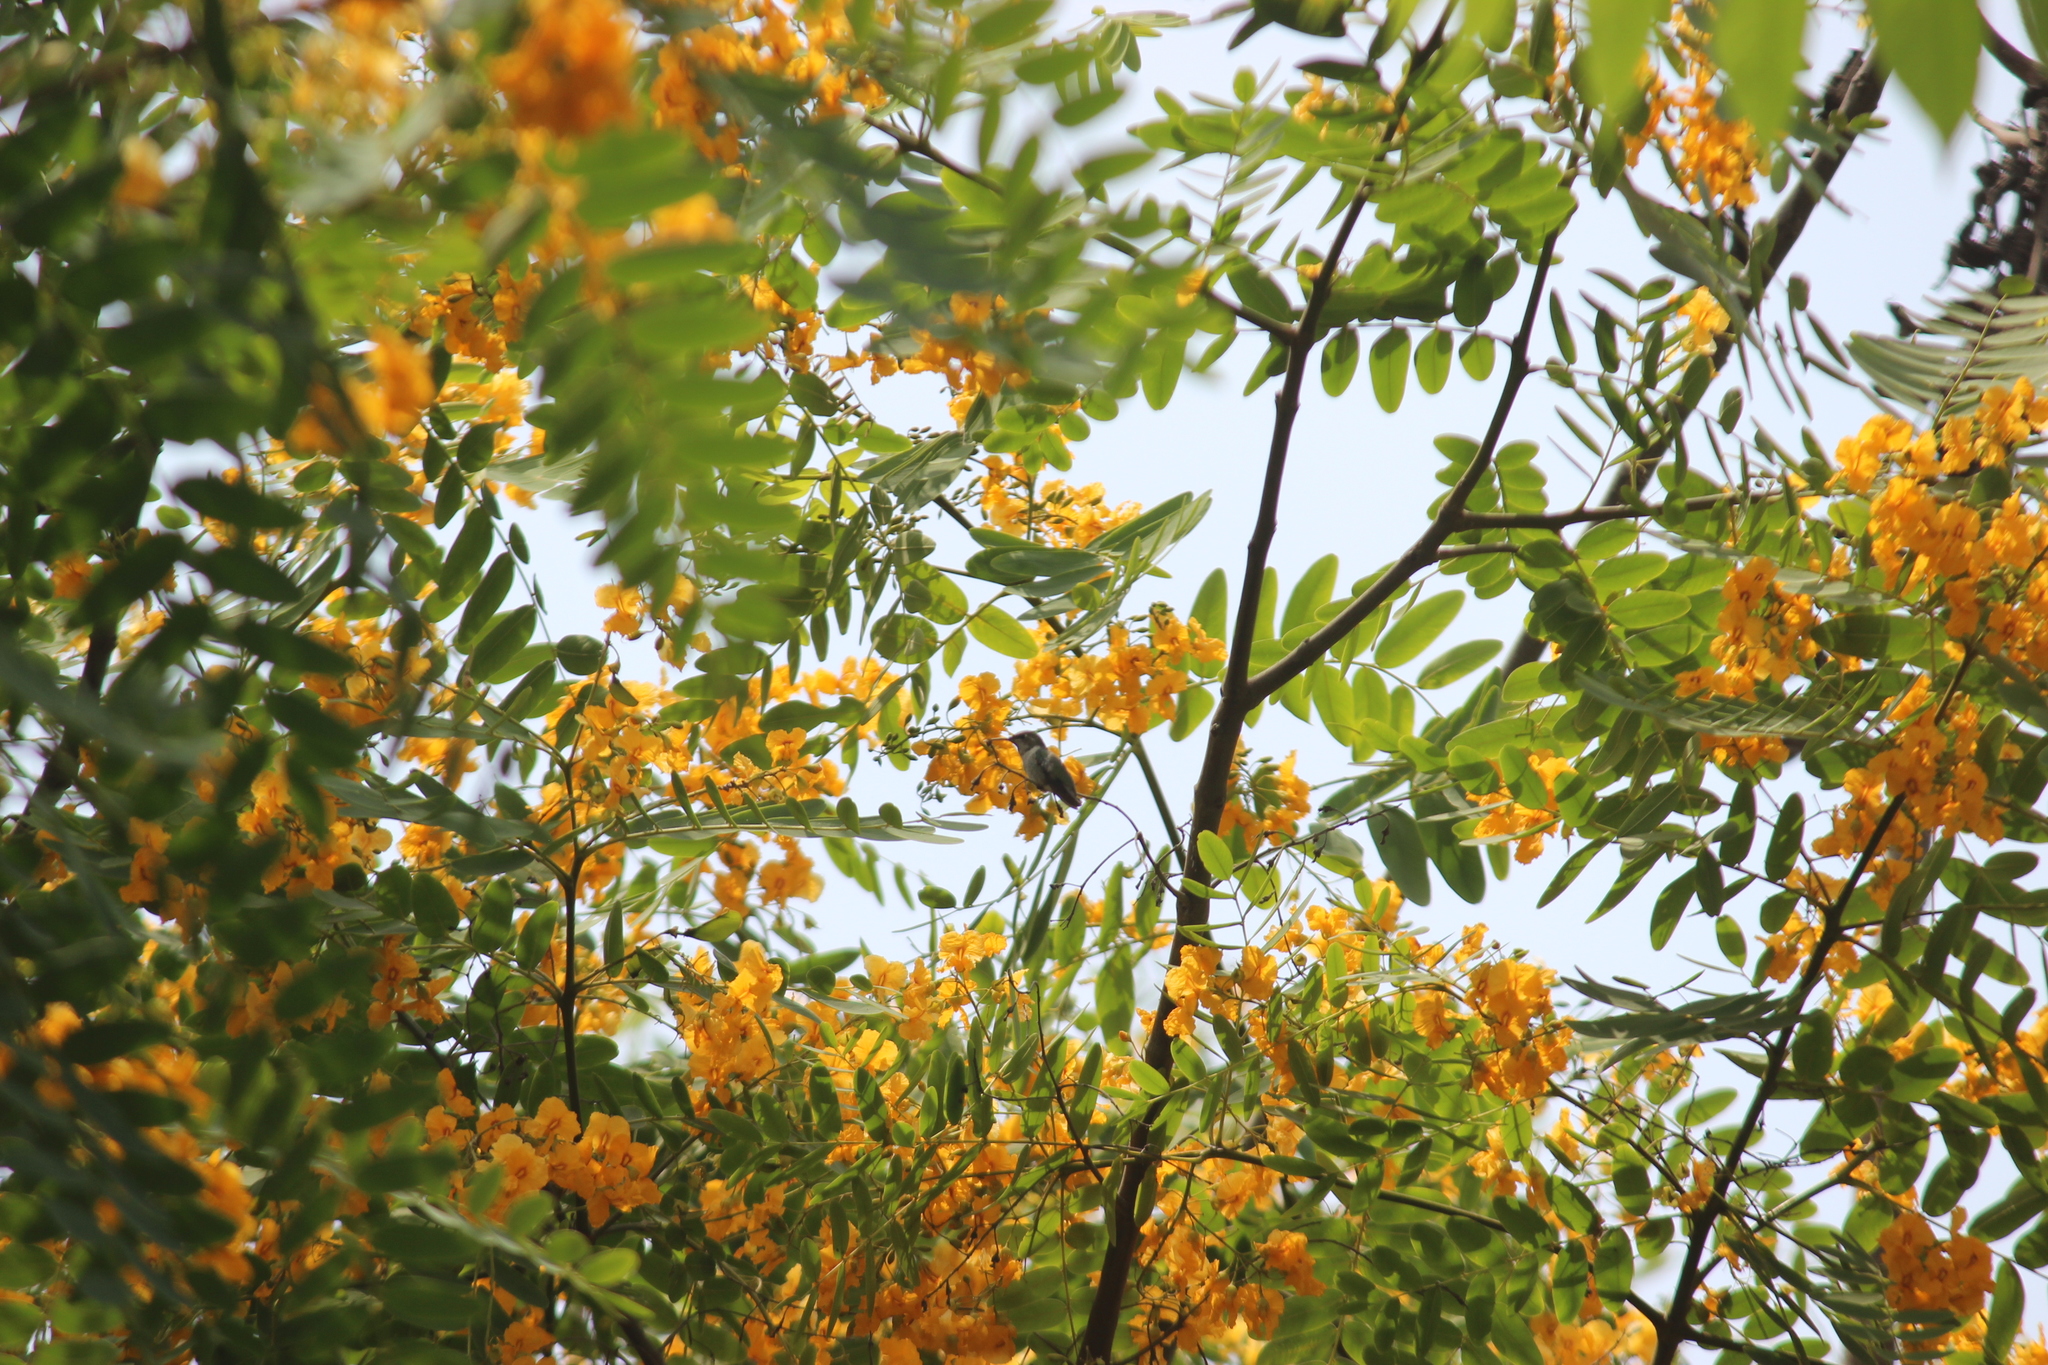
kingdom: Animalia
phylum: Chordata
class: Aves
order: Apodiformes
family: Trochilidae
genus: Thaumastura
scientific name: Thaumastura cora
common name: Peruvian sheartail
